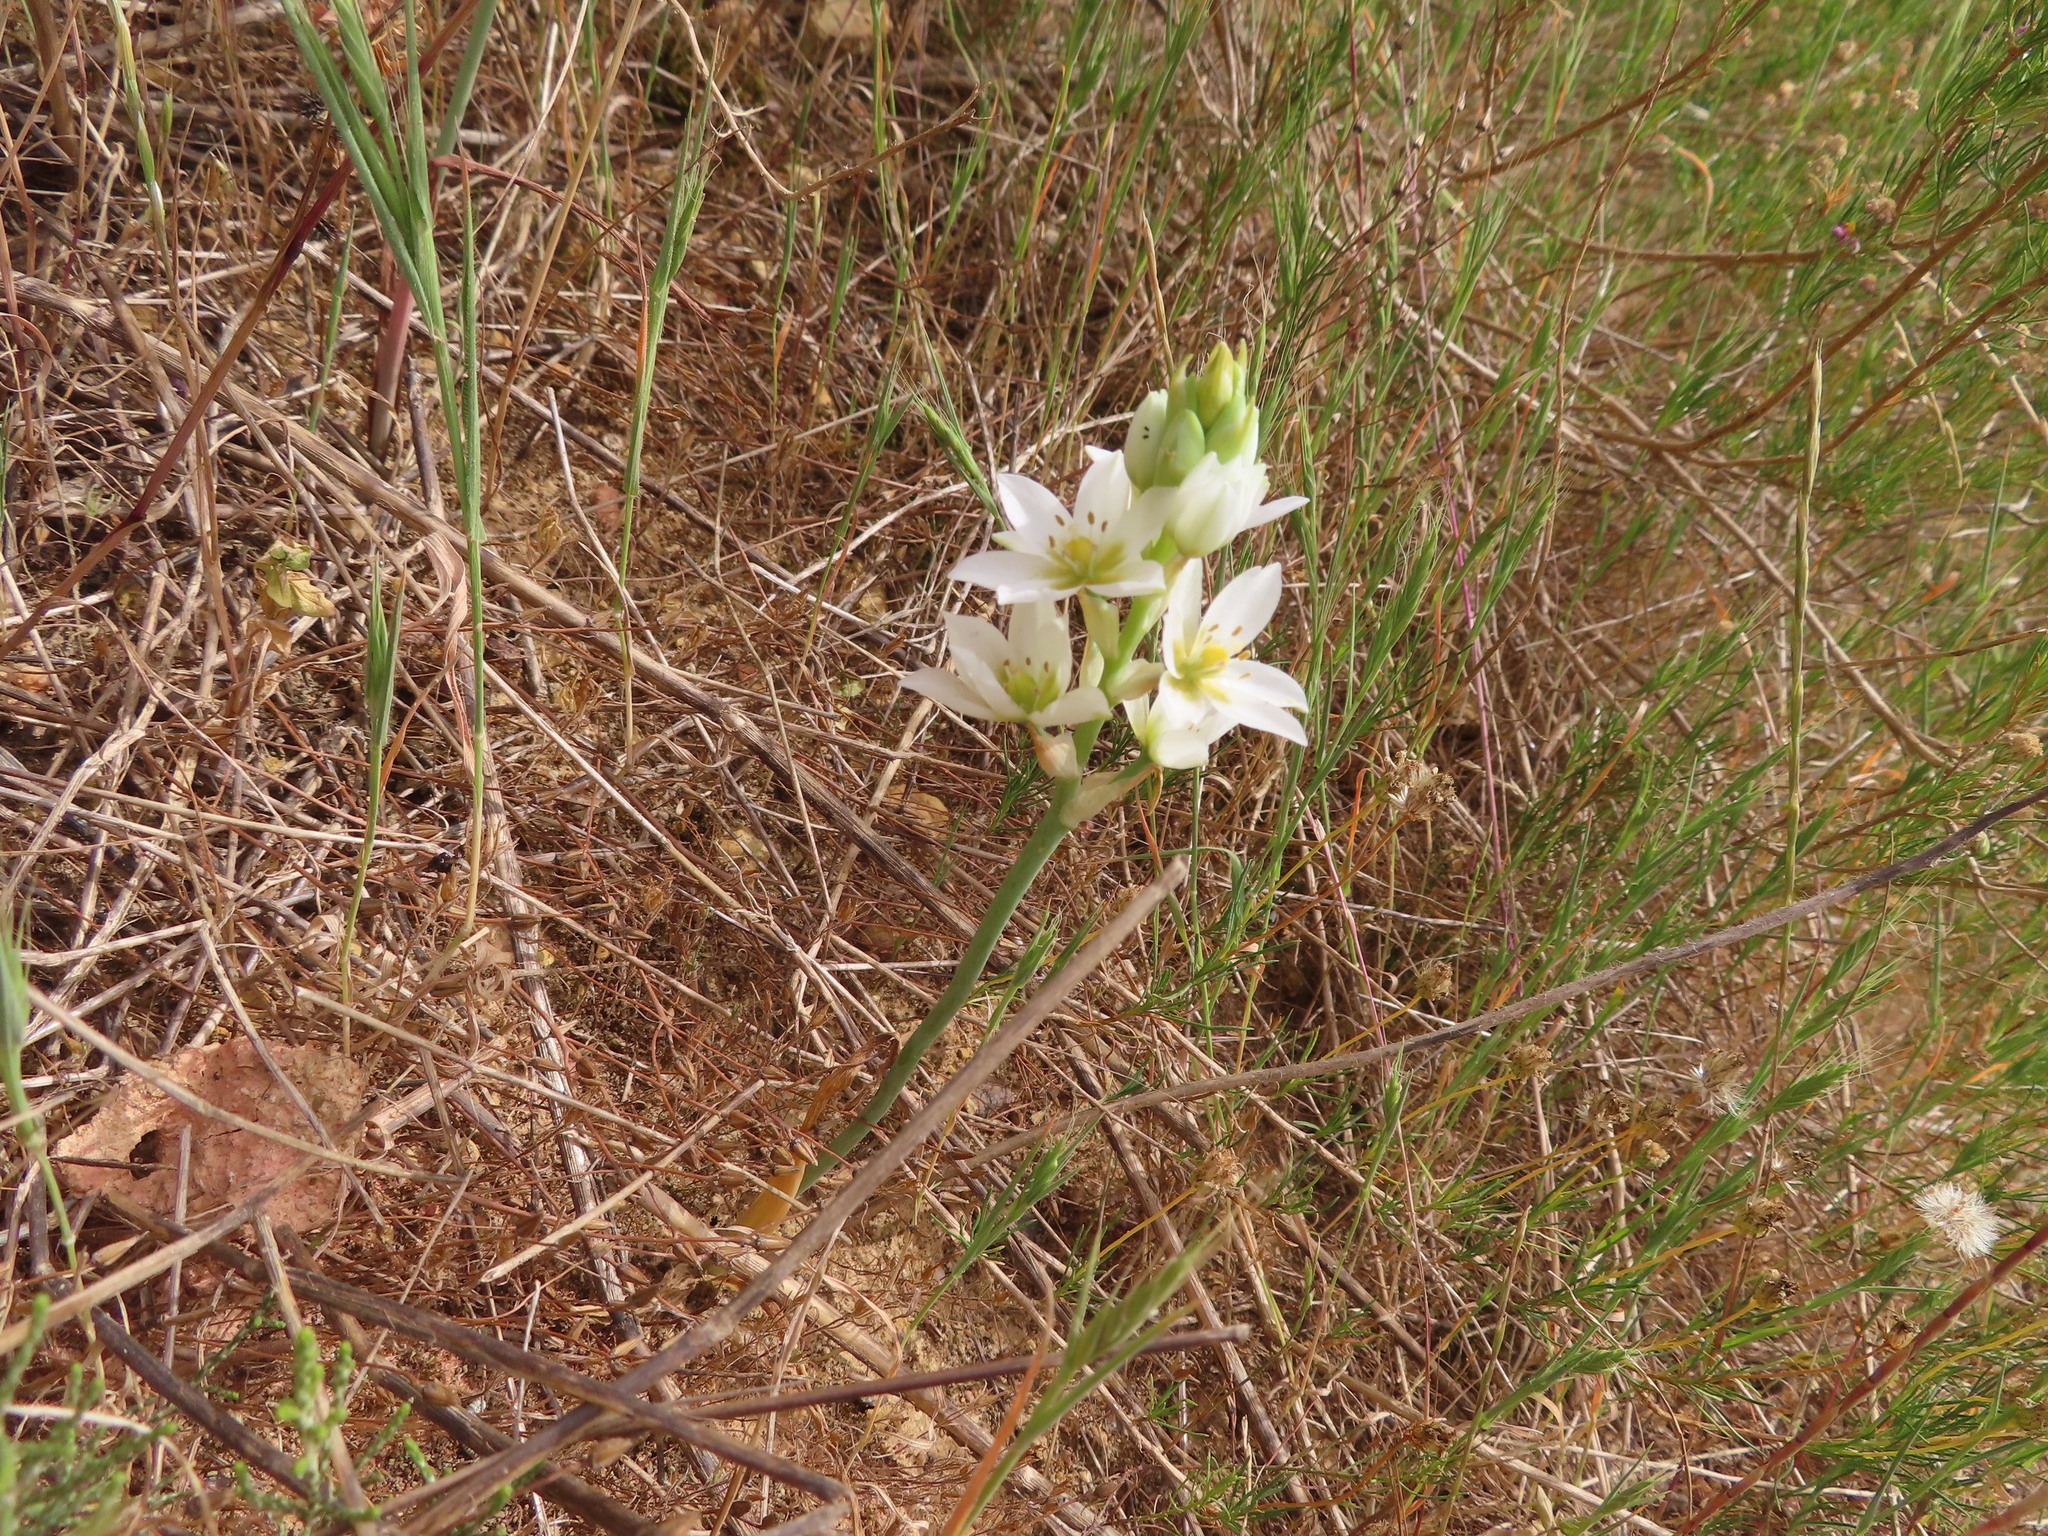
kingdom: Plantae
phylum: Tracheophyta
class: Liliopsida
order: Asparagales
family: Asparagaceae
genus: Ornithogalum
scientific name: Ornithogalum thyrsoides
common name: Chincherinchee
